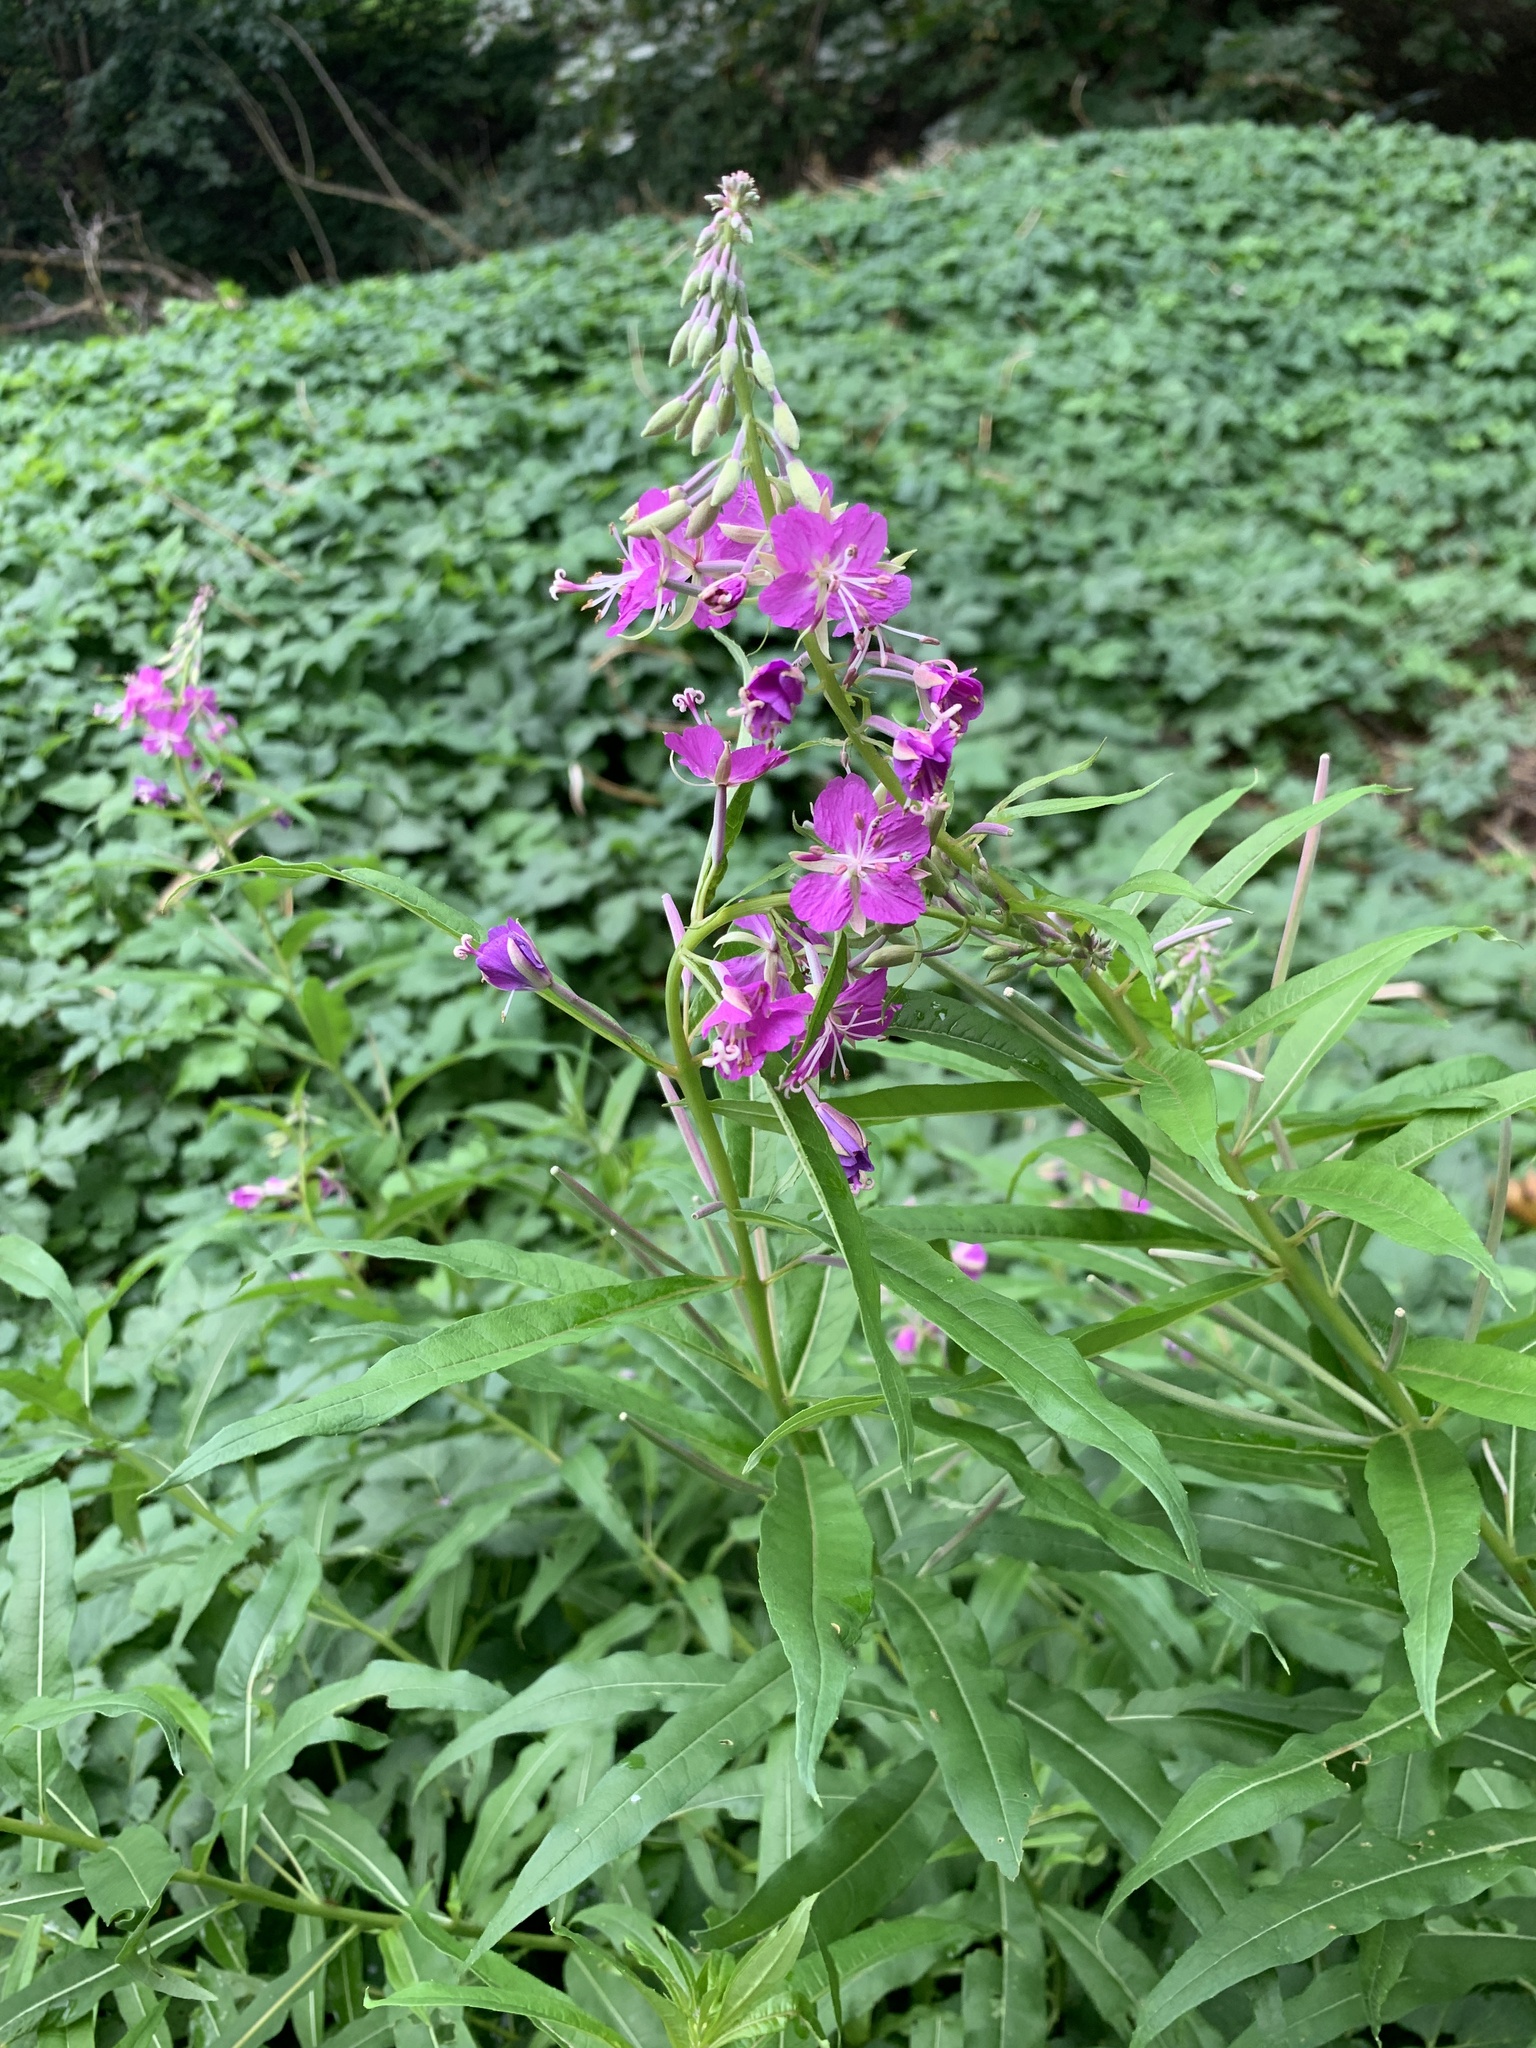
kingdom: Plantae
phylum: Tracheophyta
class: Magnoliopsida
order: Myrtales
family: Onagraceae
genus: Chamaenerion
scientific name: Chamaenerion angustifolium
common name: Fireweed
